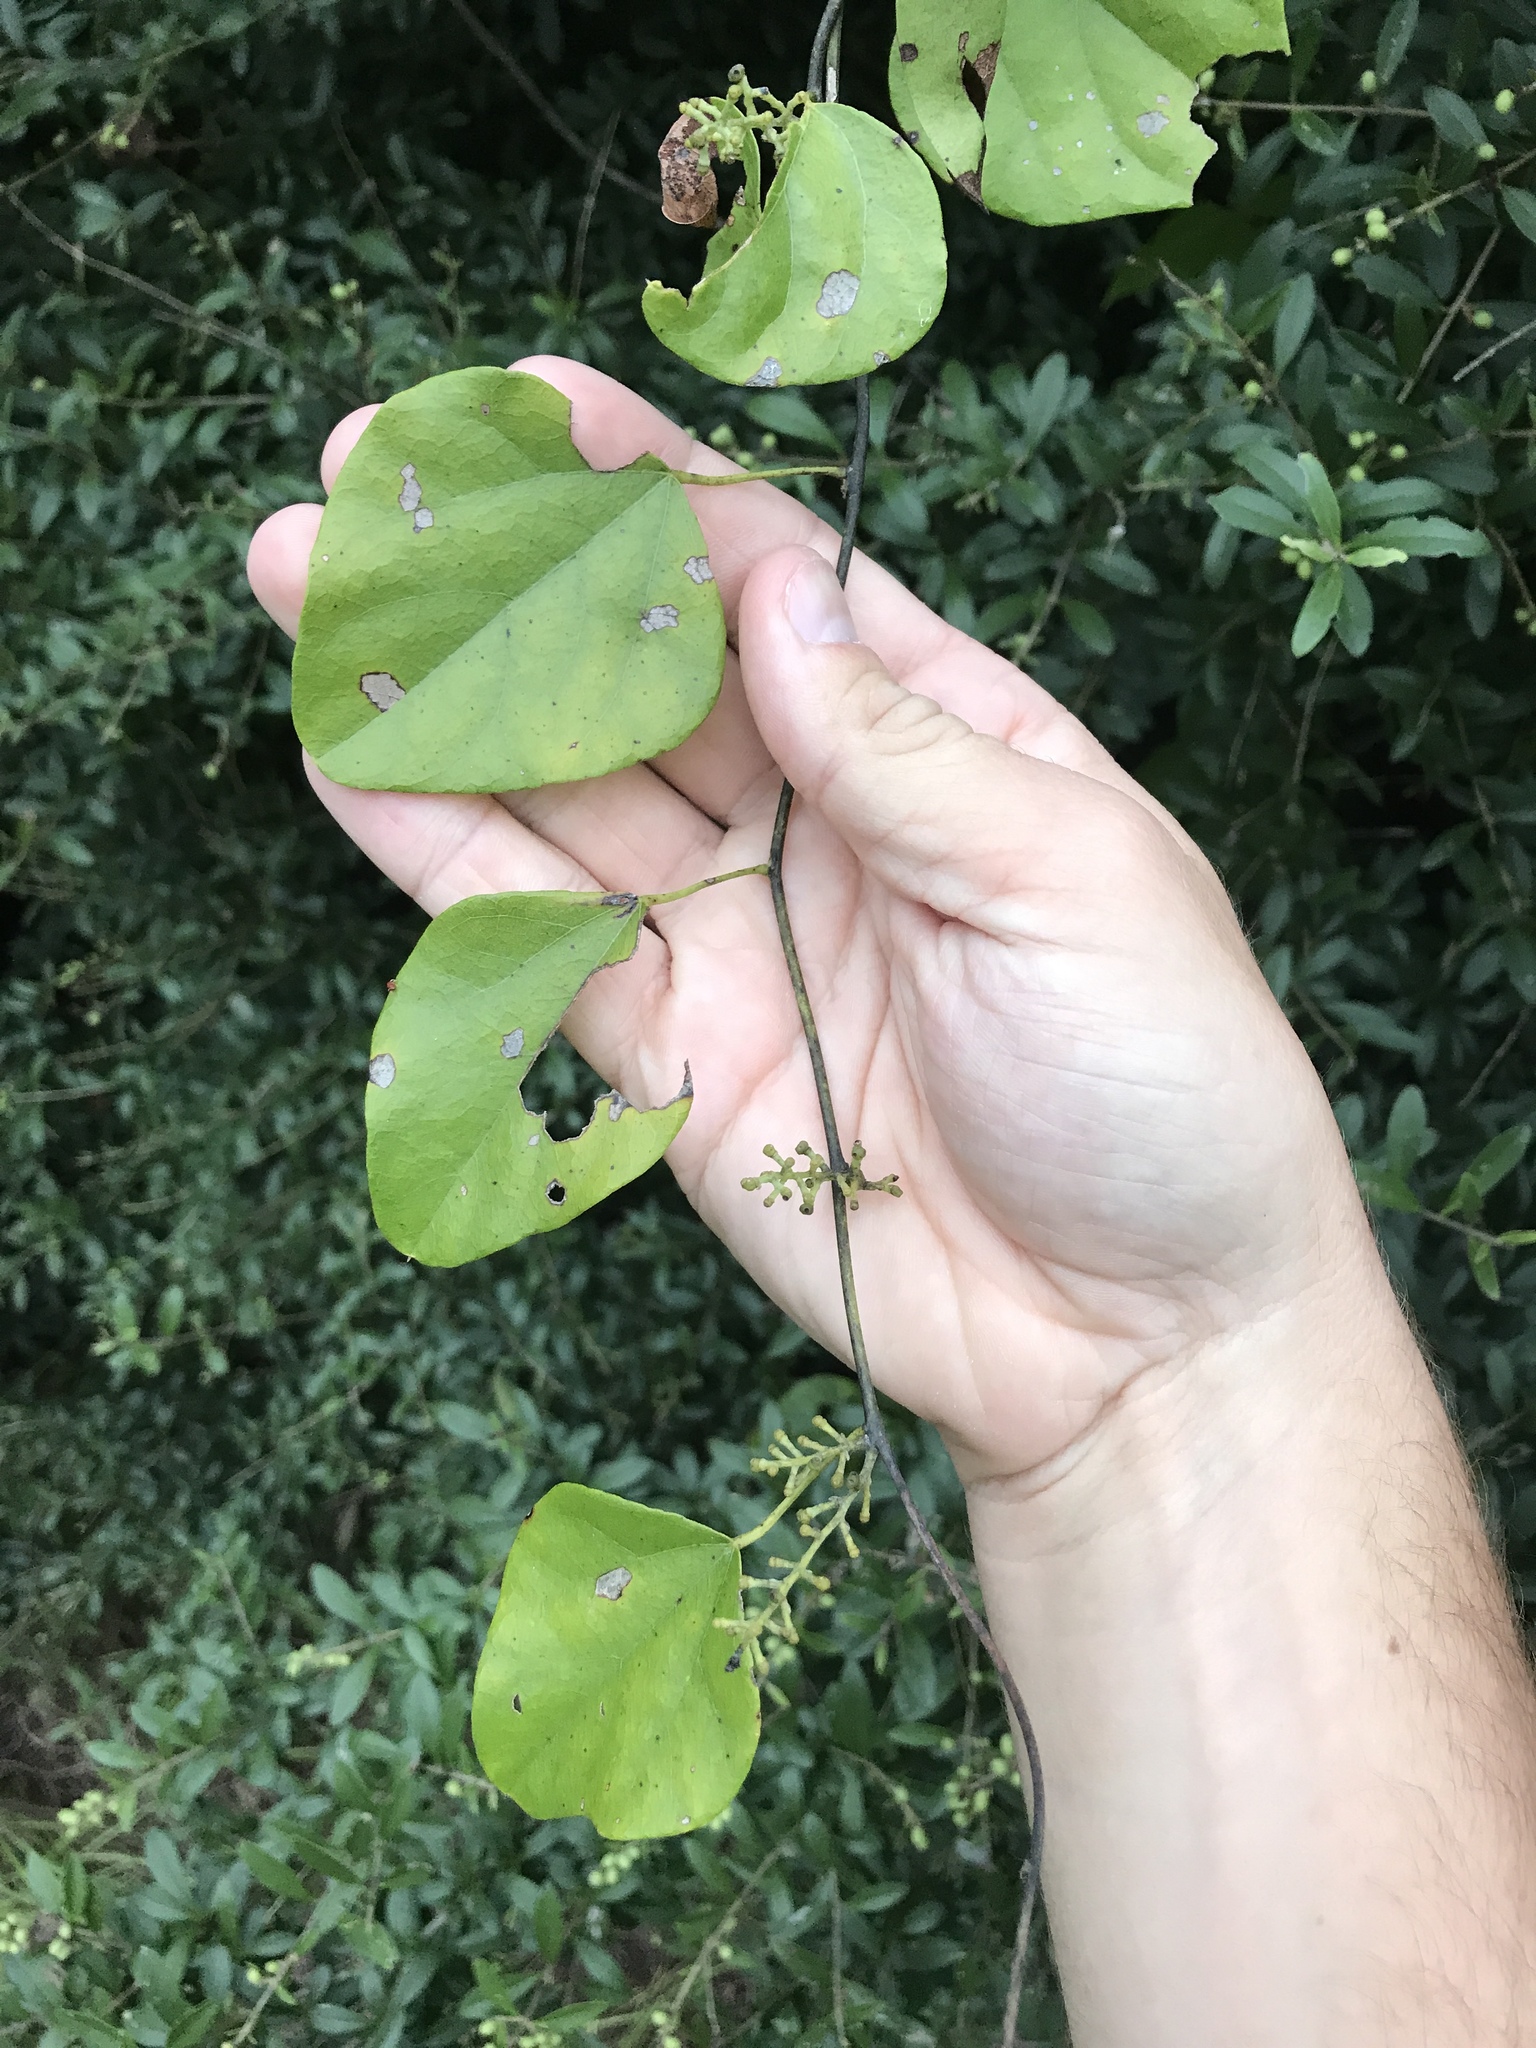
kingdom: Plantae
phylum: Tracheophyta
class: Magnoliopsida
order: Ranunculales
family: Menispermaceae
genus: Cocculus
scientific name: Cocculus carolinus
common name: Carolina moonseed
